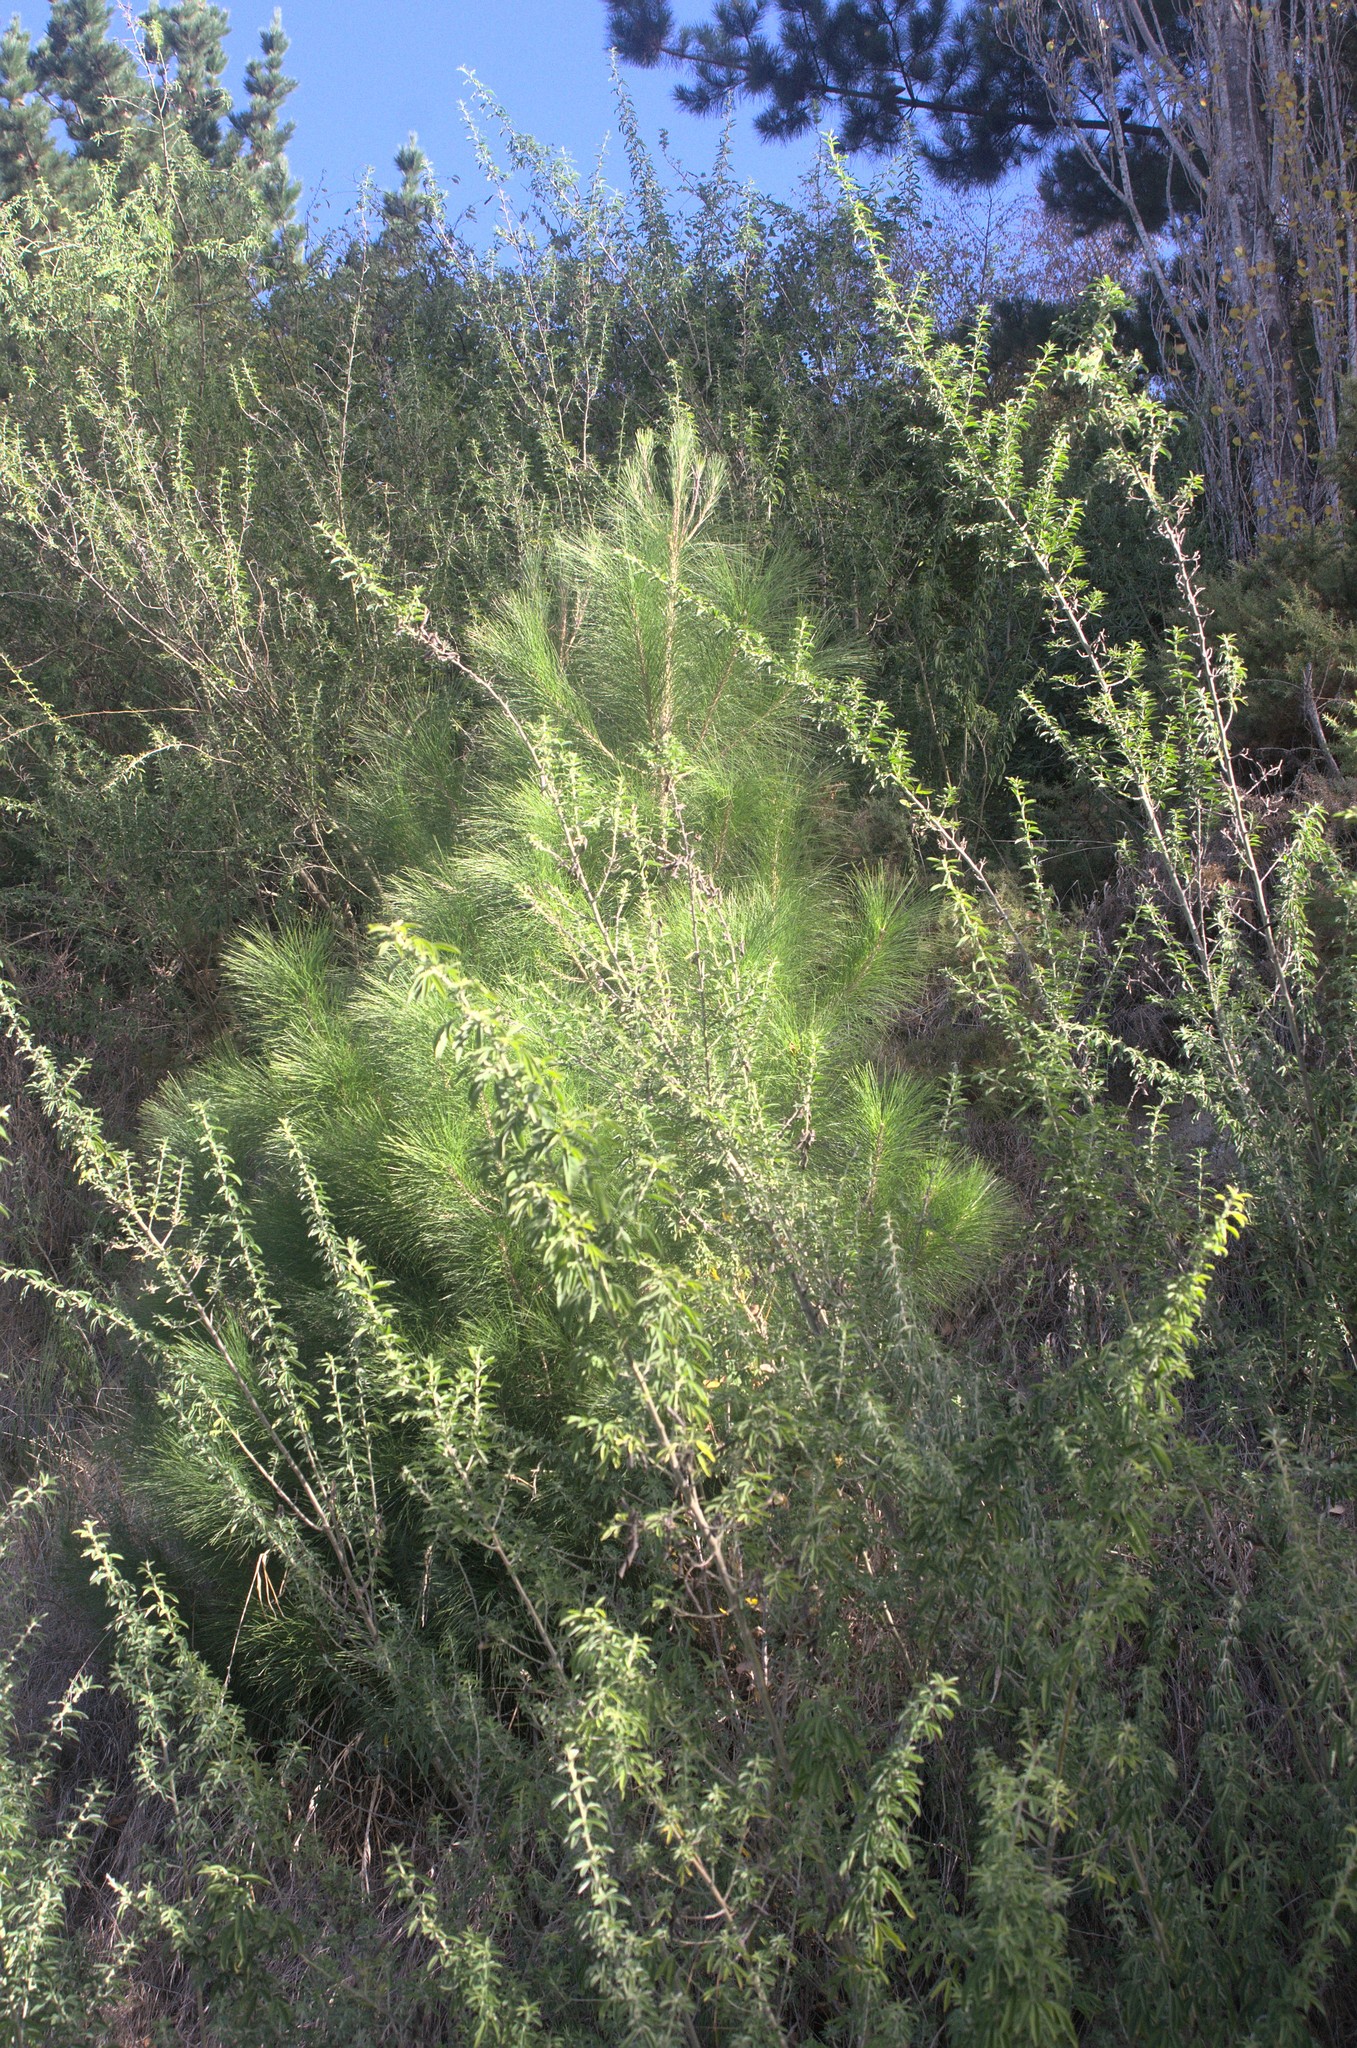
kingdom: Plantae
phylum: Tracheophyta
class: Magnoliopsida
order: Fabales
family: Fabaceae
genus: Chamaecytisus
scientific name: Chamaecytisus prolifer
